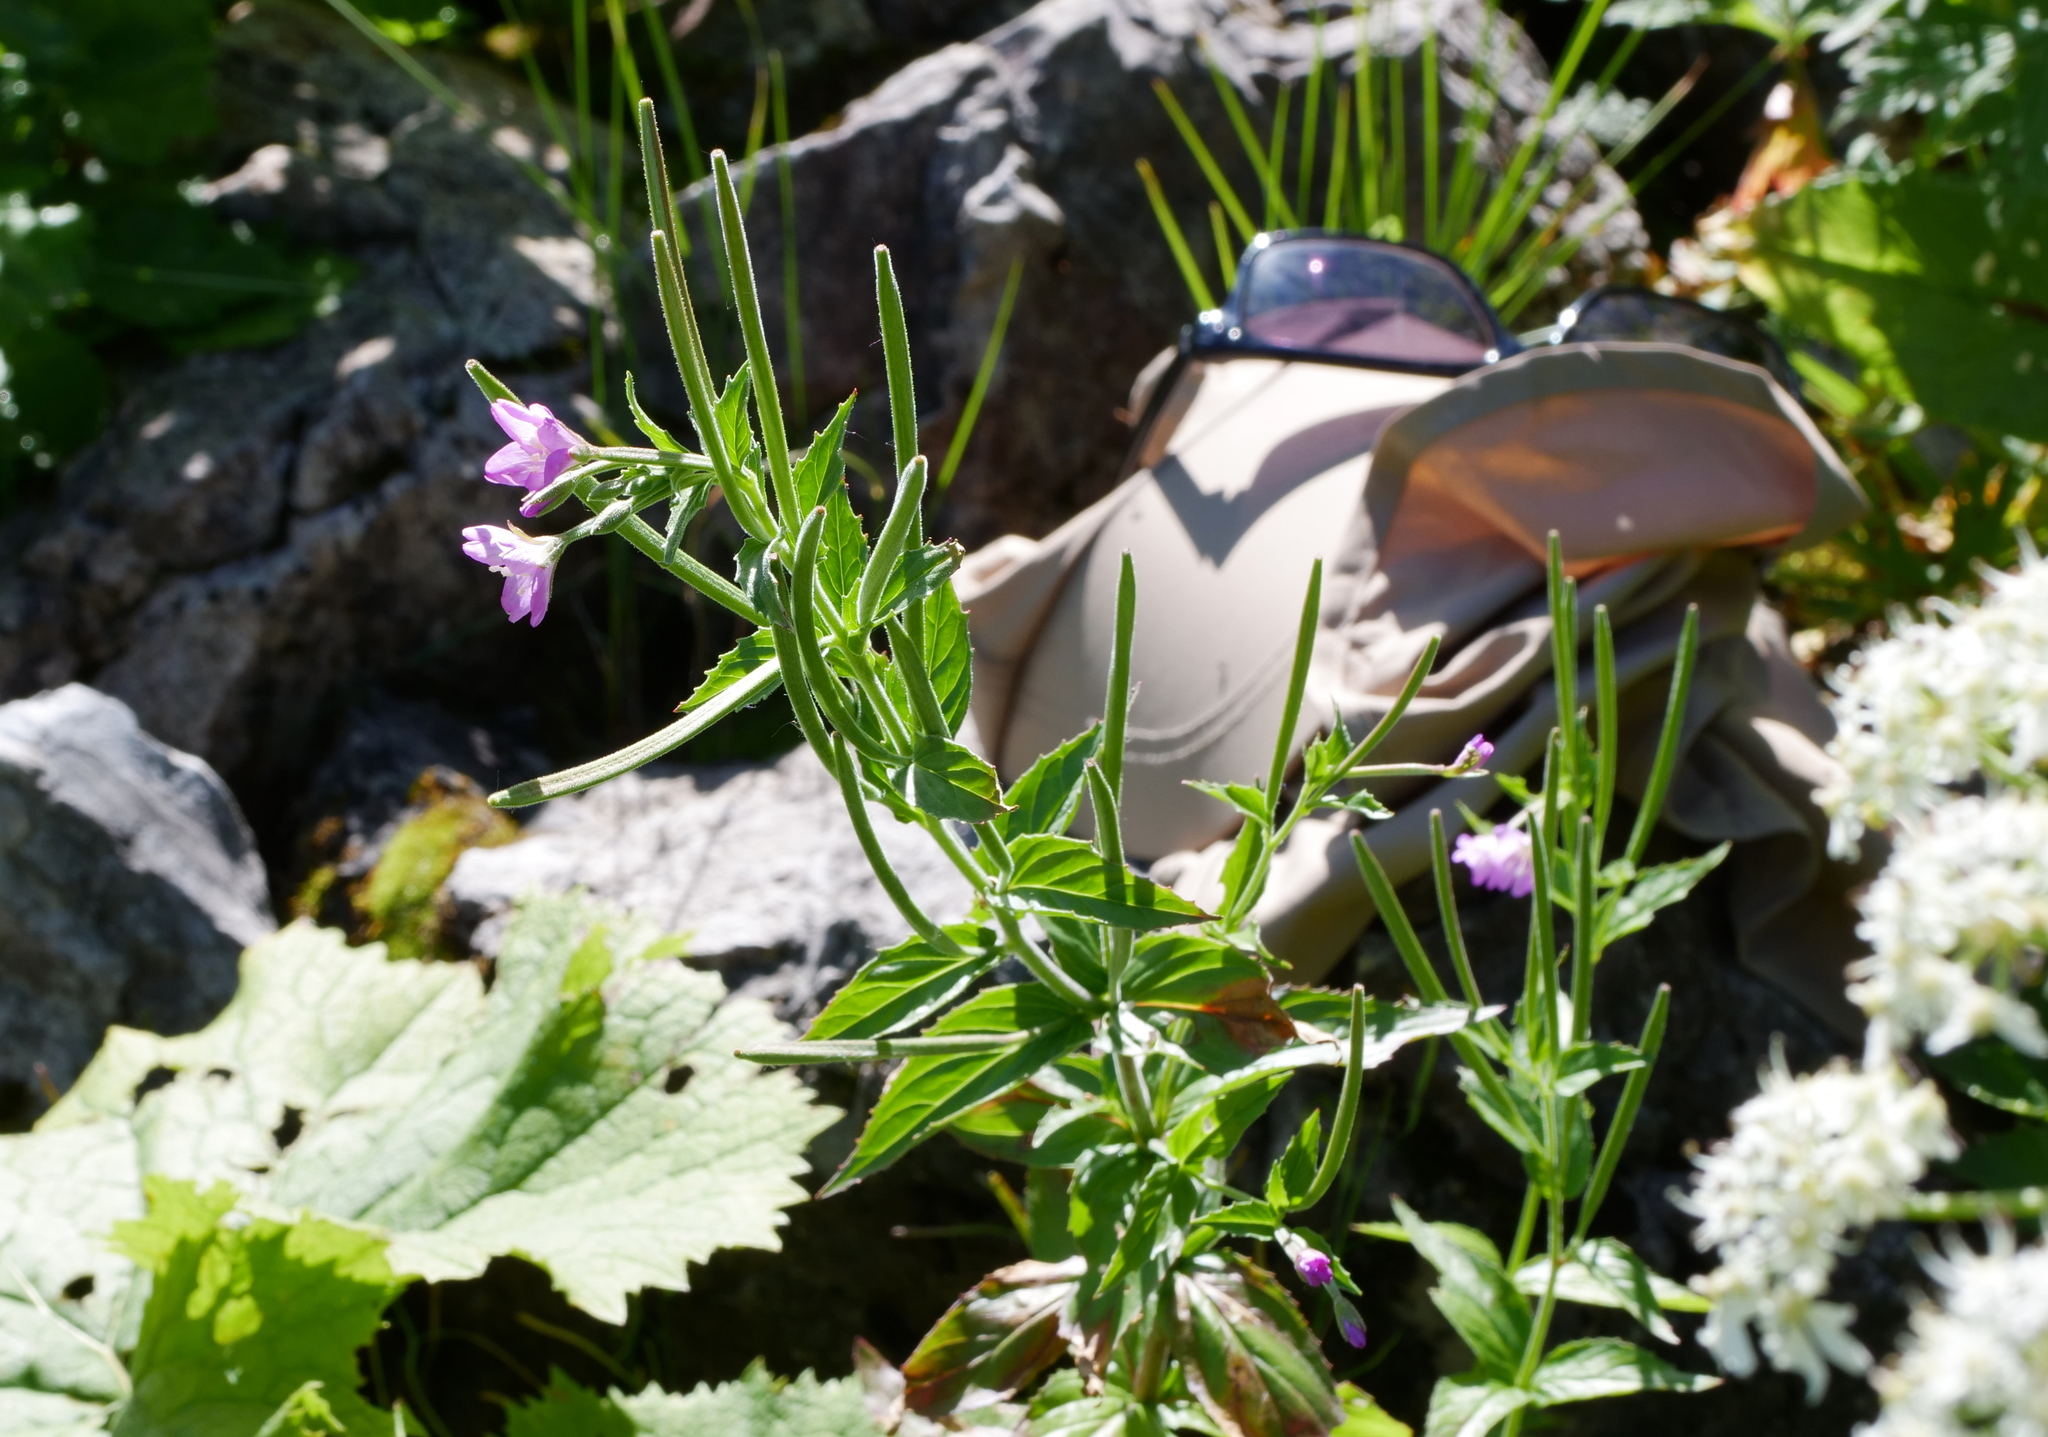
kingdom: Plantae
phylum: Tracheophyta
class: Magnoliopsida
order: Myrtales
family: Onagraceae
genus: Epilobium
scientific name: Epilobium alpestre
